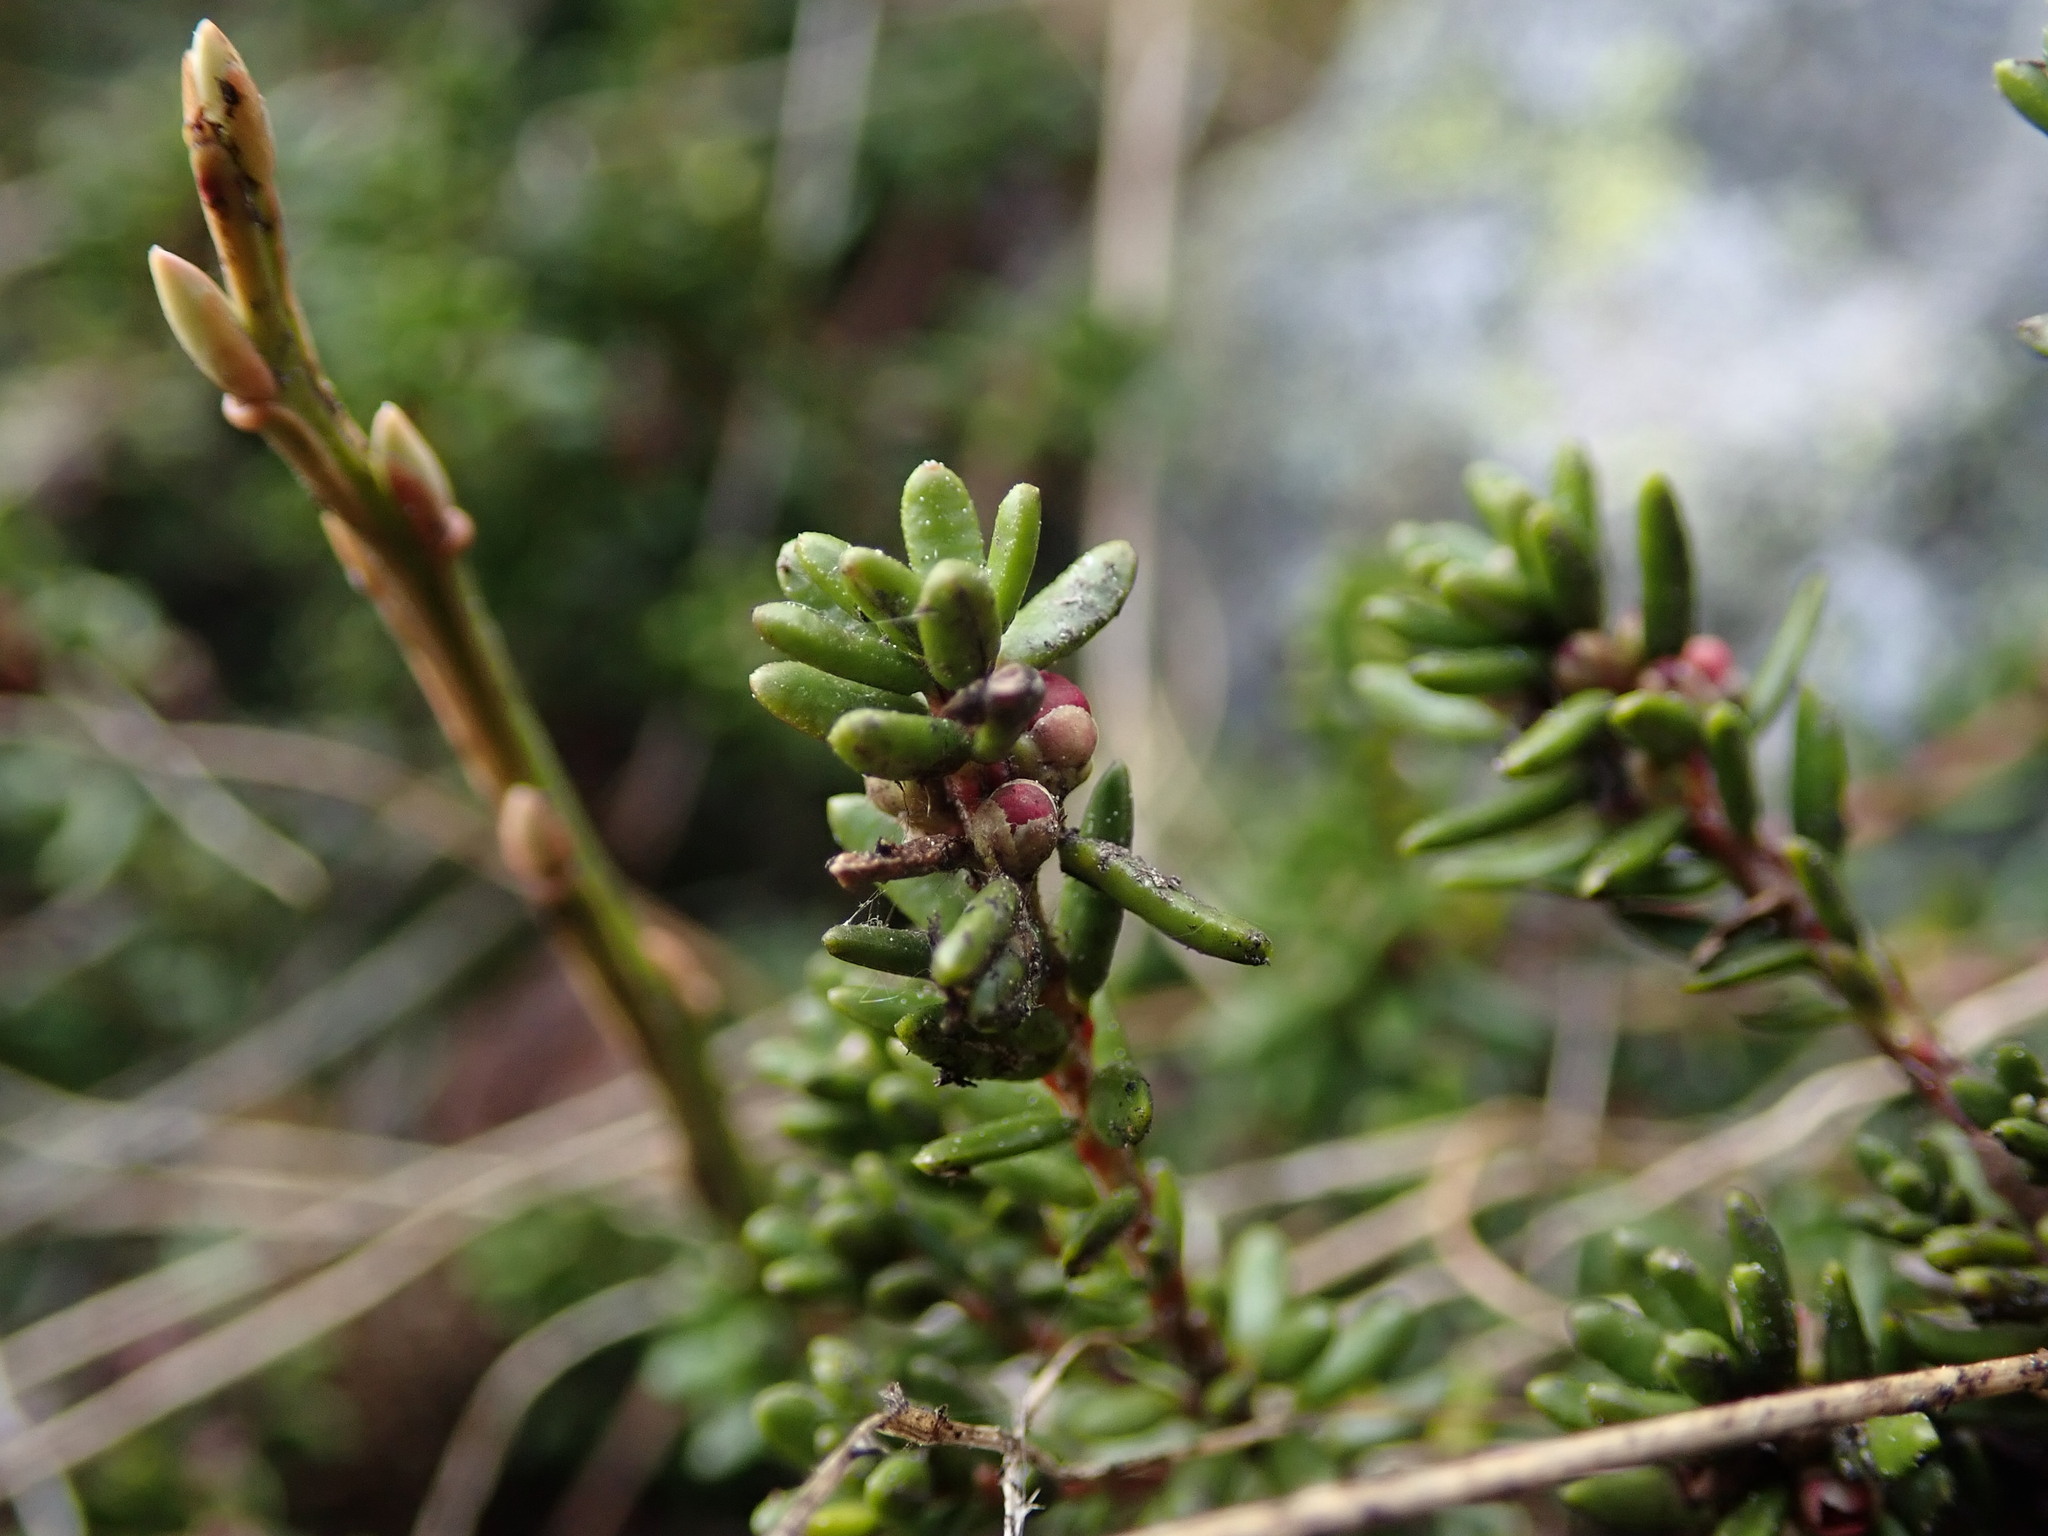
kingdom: Plantae
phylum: Tracheophyta
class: Magnoliopsida
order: Ericales
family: Ericaceae
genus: Empetrum
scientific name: Empetrum nigrum
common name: Black crowberry
